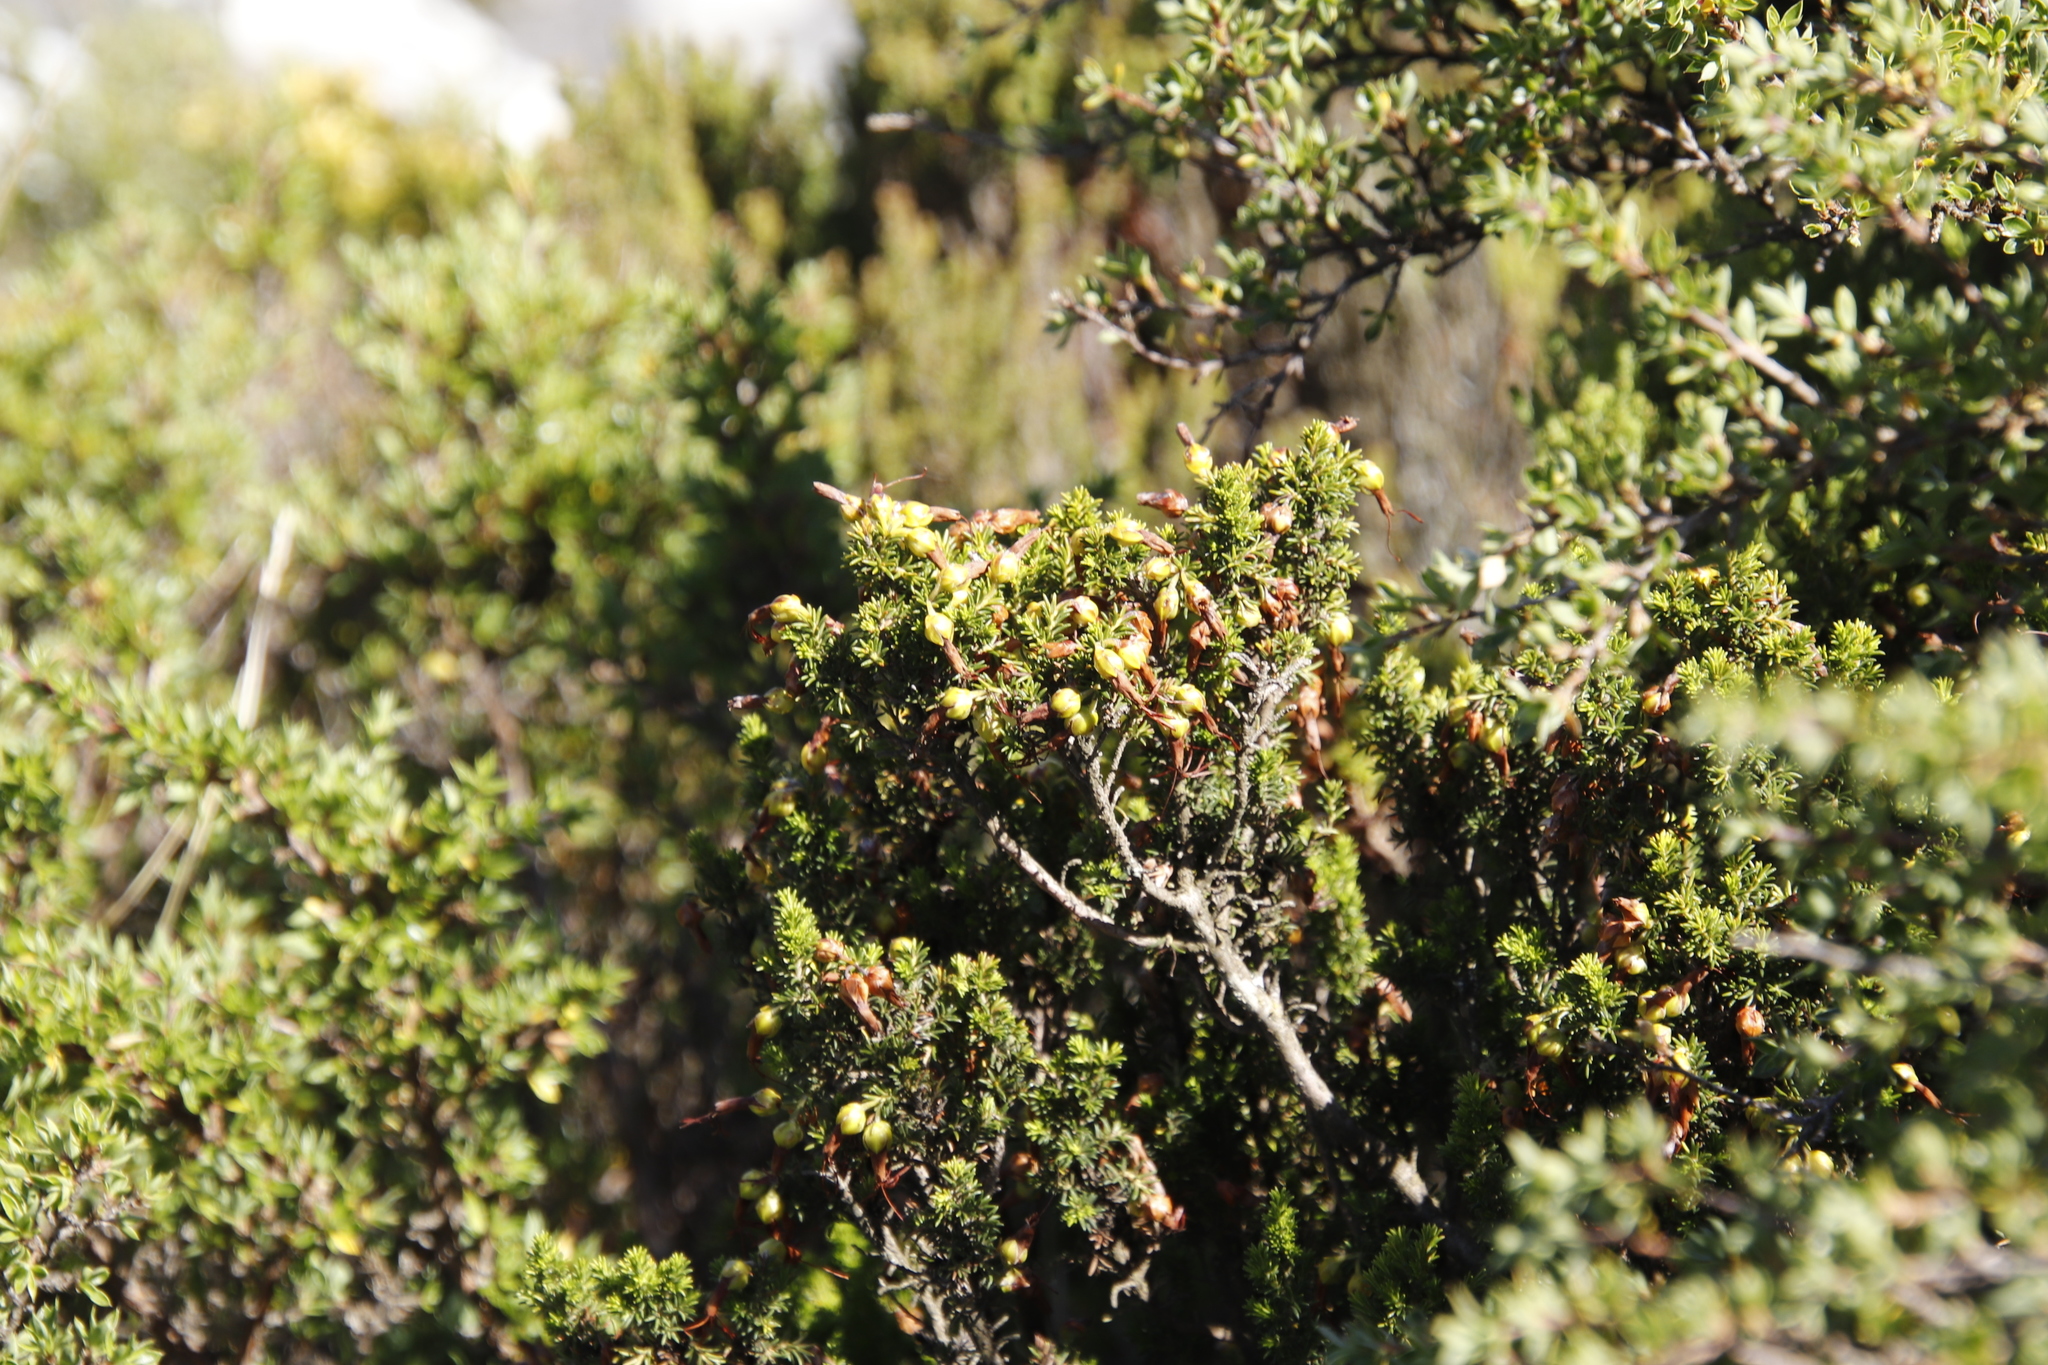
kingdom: Plantae
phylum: Tracheophyta
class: Magnoliopsida
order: Ericales
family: Ericaceae
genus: Erica
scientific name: Erica coccinea
